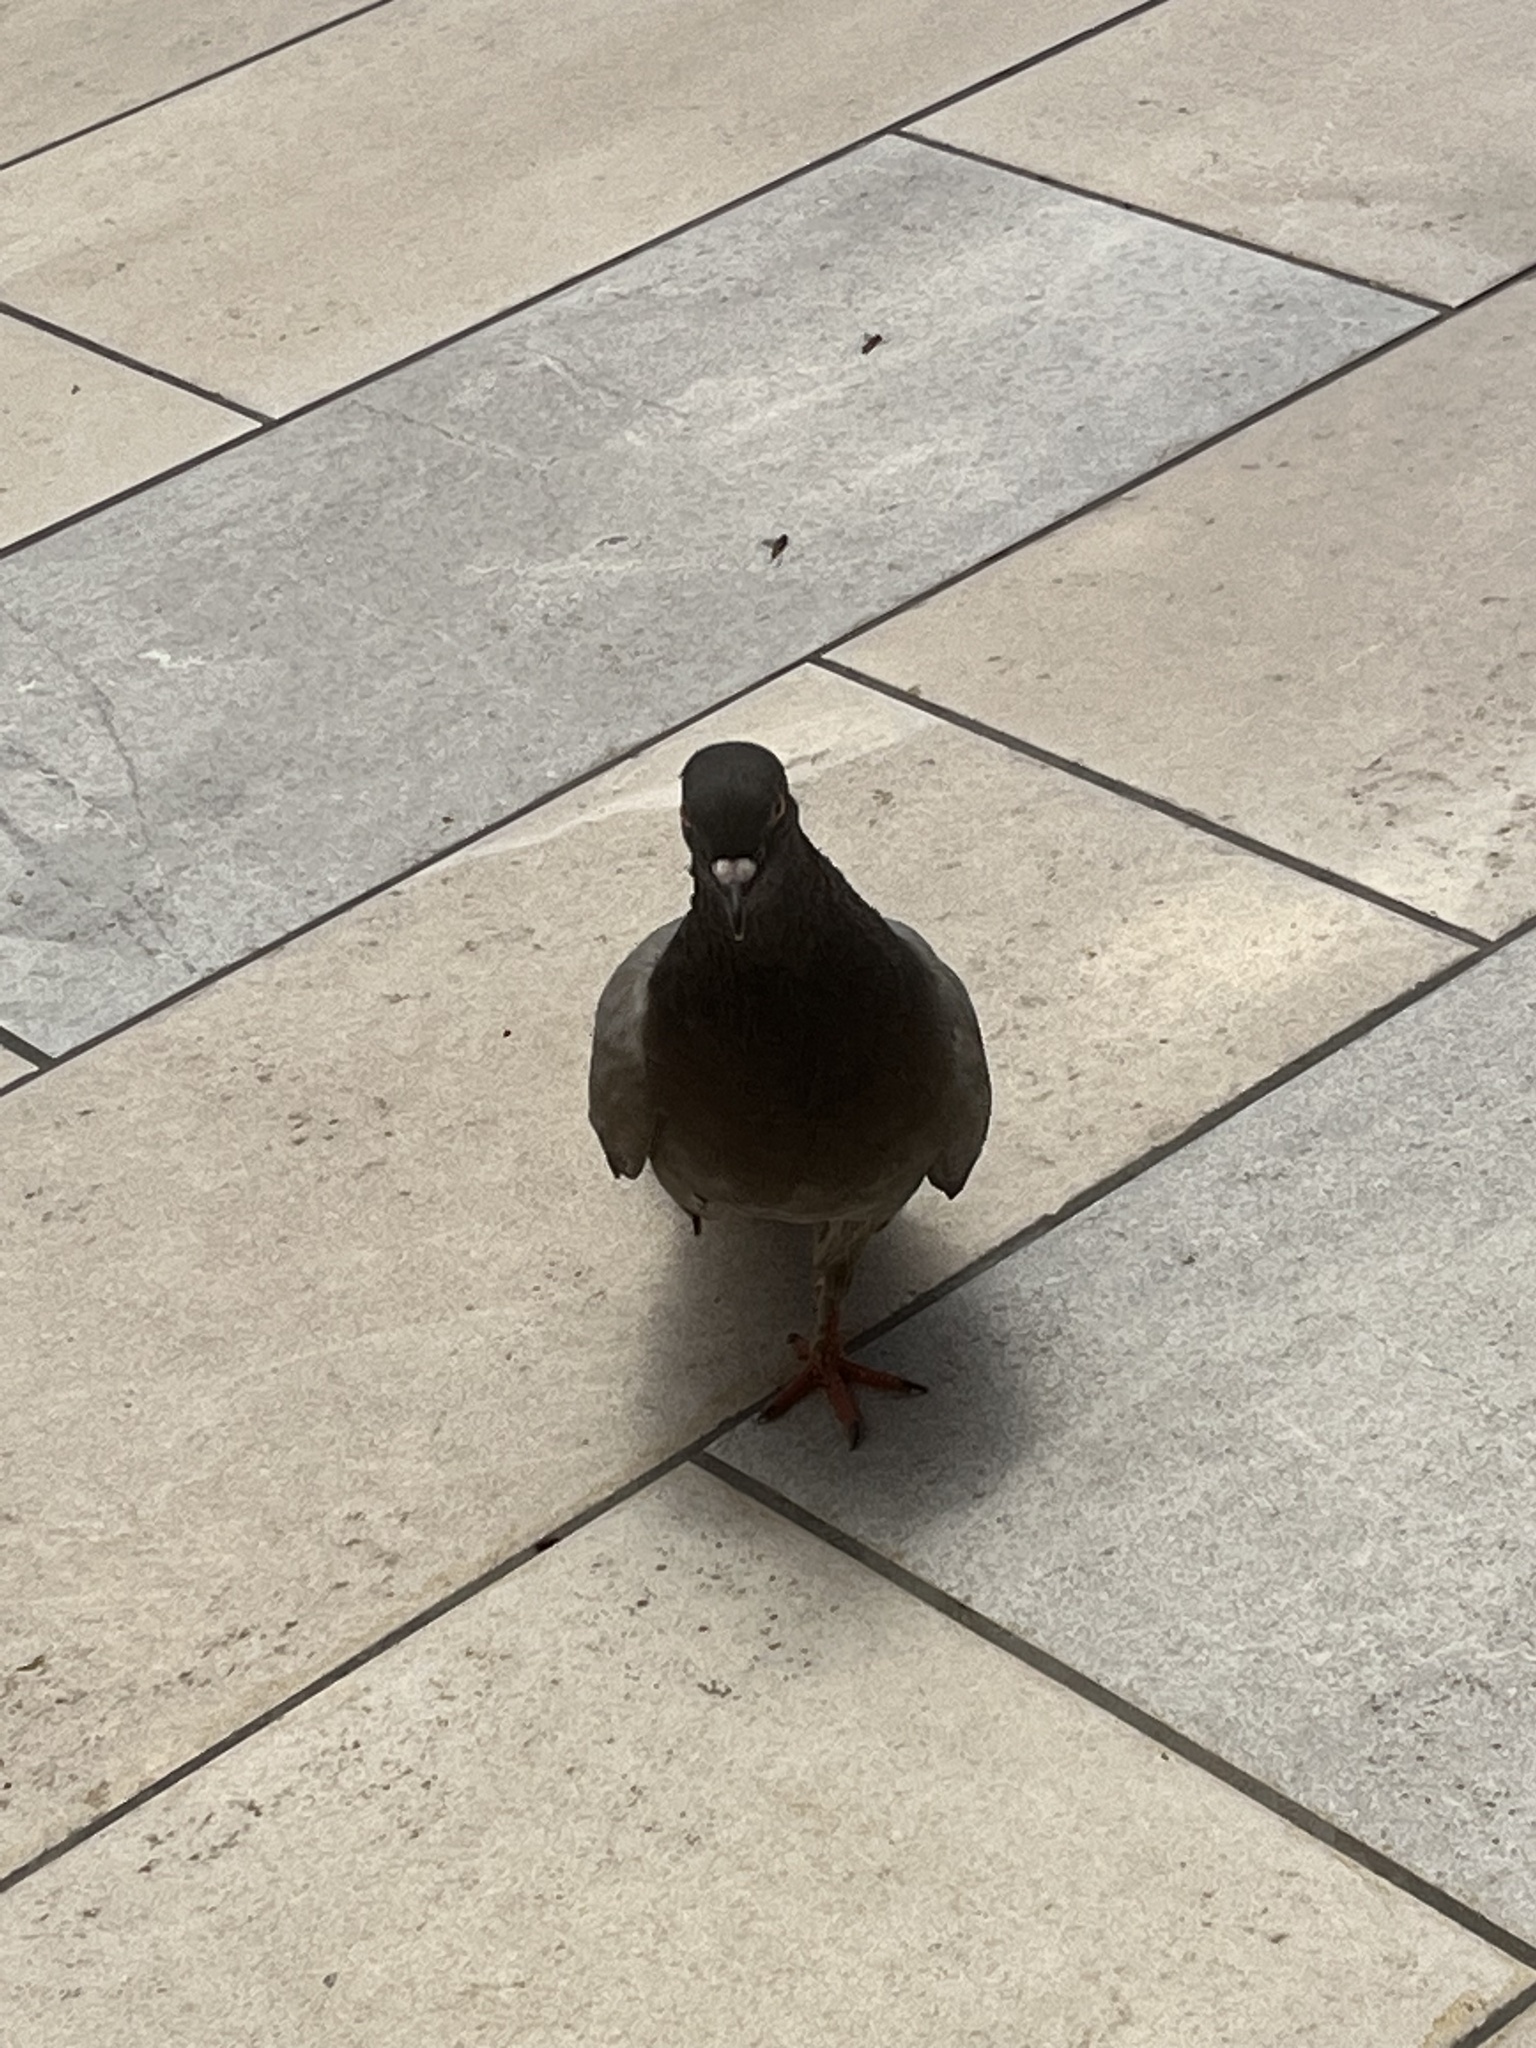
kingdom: Animalia
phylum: Chordata
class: Aves
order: Columbiformes
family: Columbidae
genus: Columba
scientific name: Columba livia
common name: Rock pigeon
